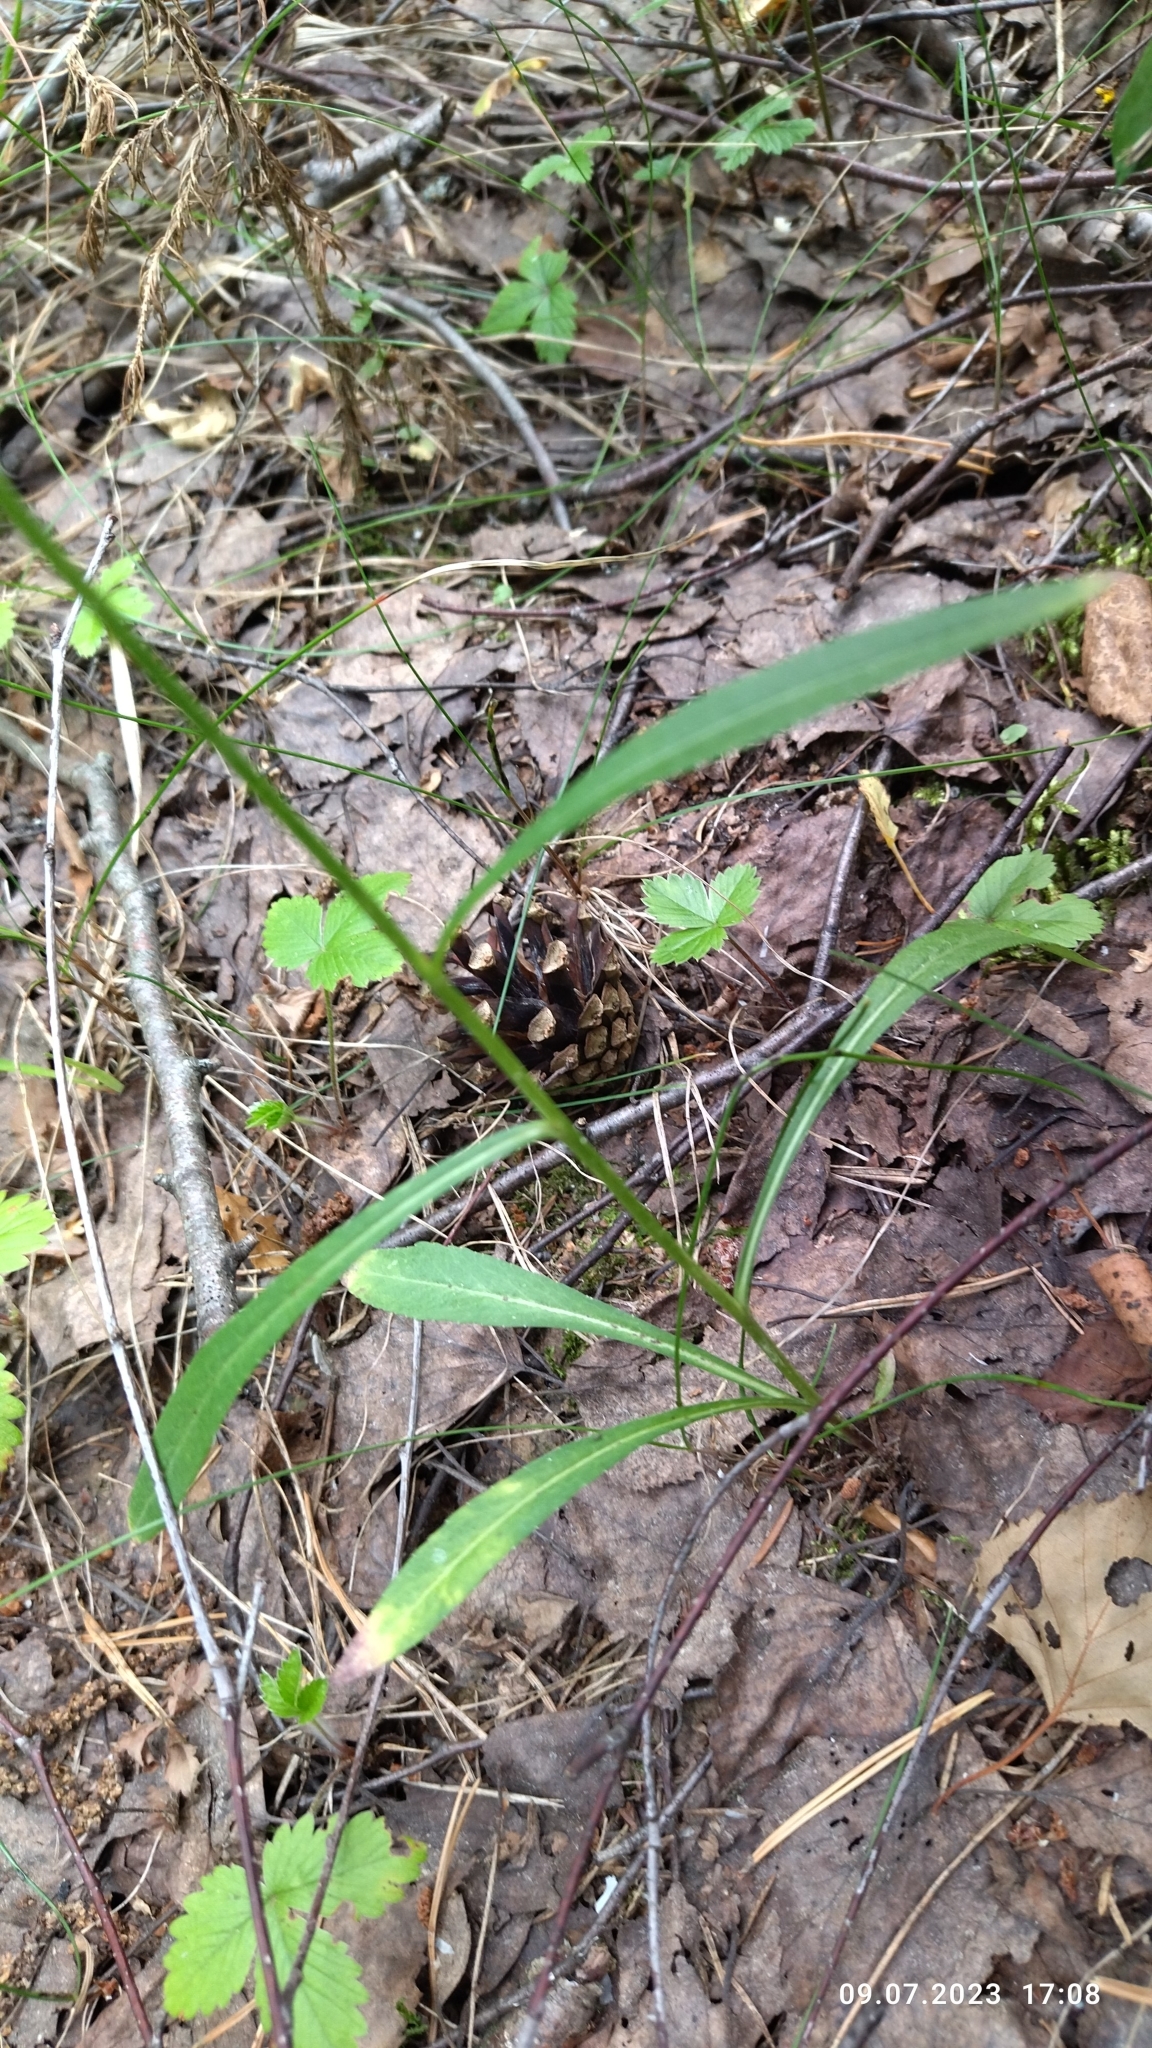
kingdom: Plantae
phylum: Tracheophyta
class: Magnoliopsida
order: Asterales
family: Campanulaceae
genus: Campanula
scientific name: Campanula persicifolia
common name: Peach-leaved bellflower
